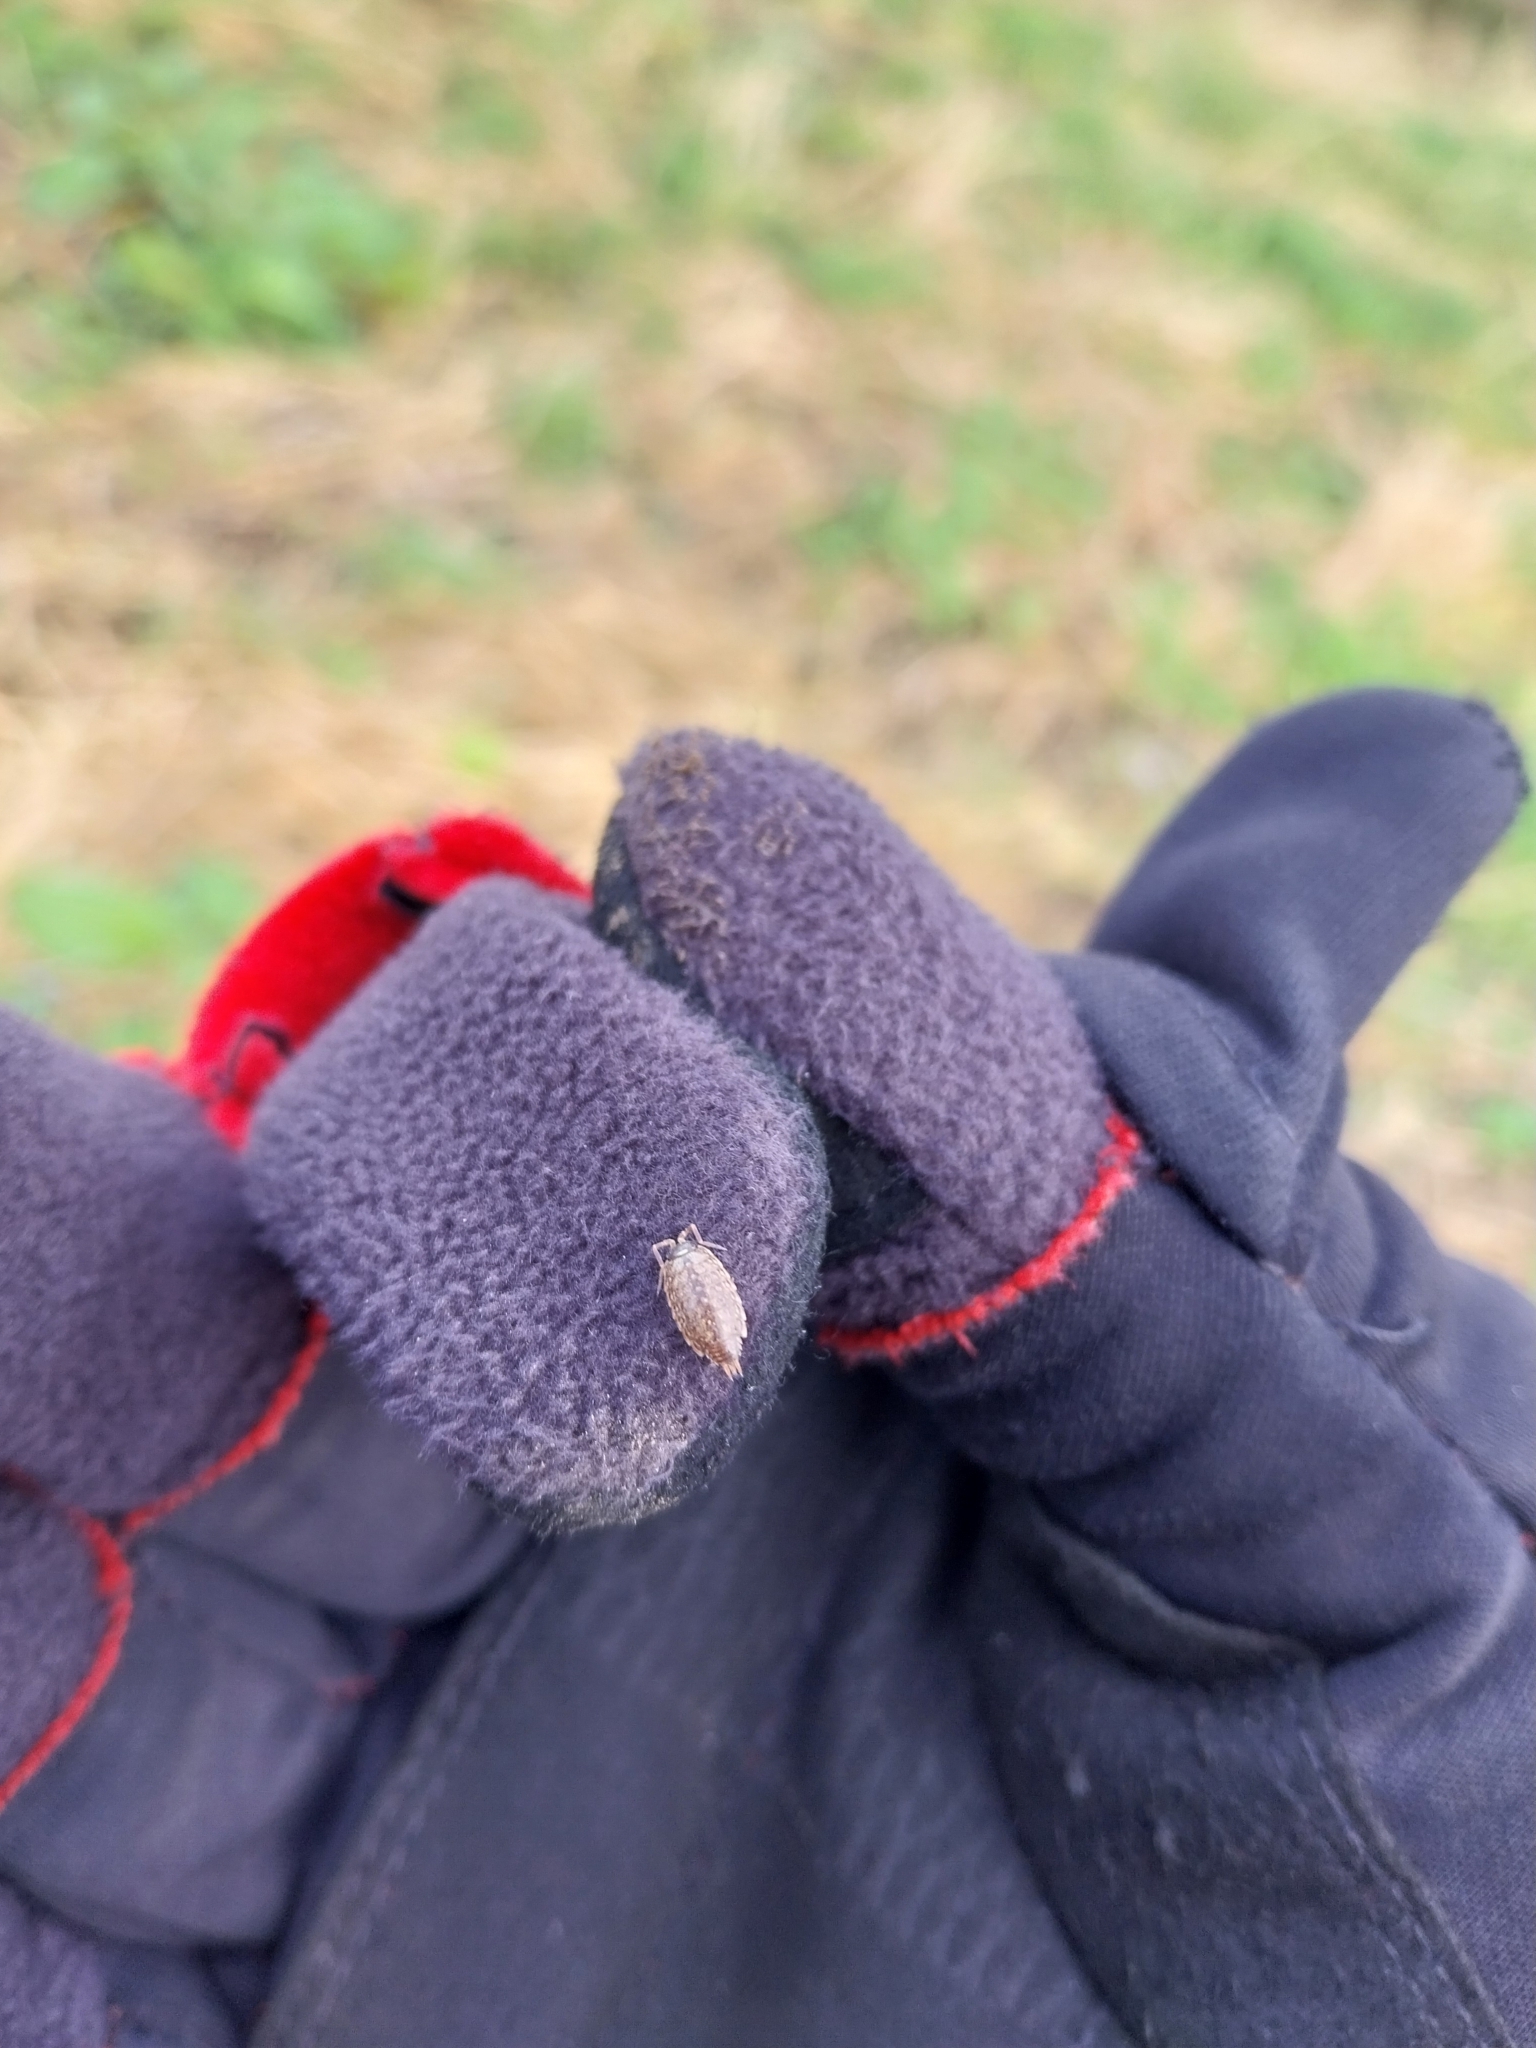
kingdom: Animalia
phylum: Arthropoda
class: Malacostraca
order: Isopoda
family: Philosciidae
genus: Philoscia
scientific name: Philoscia muscorum
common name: Common striped woodlouse
